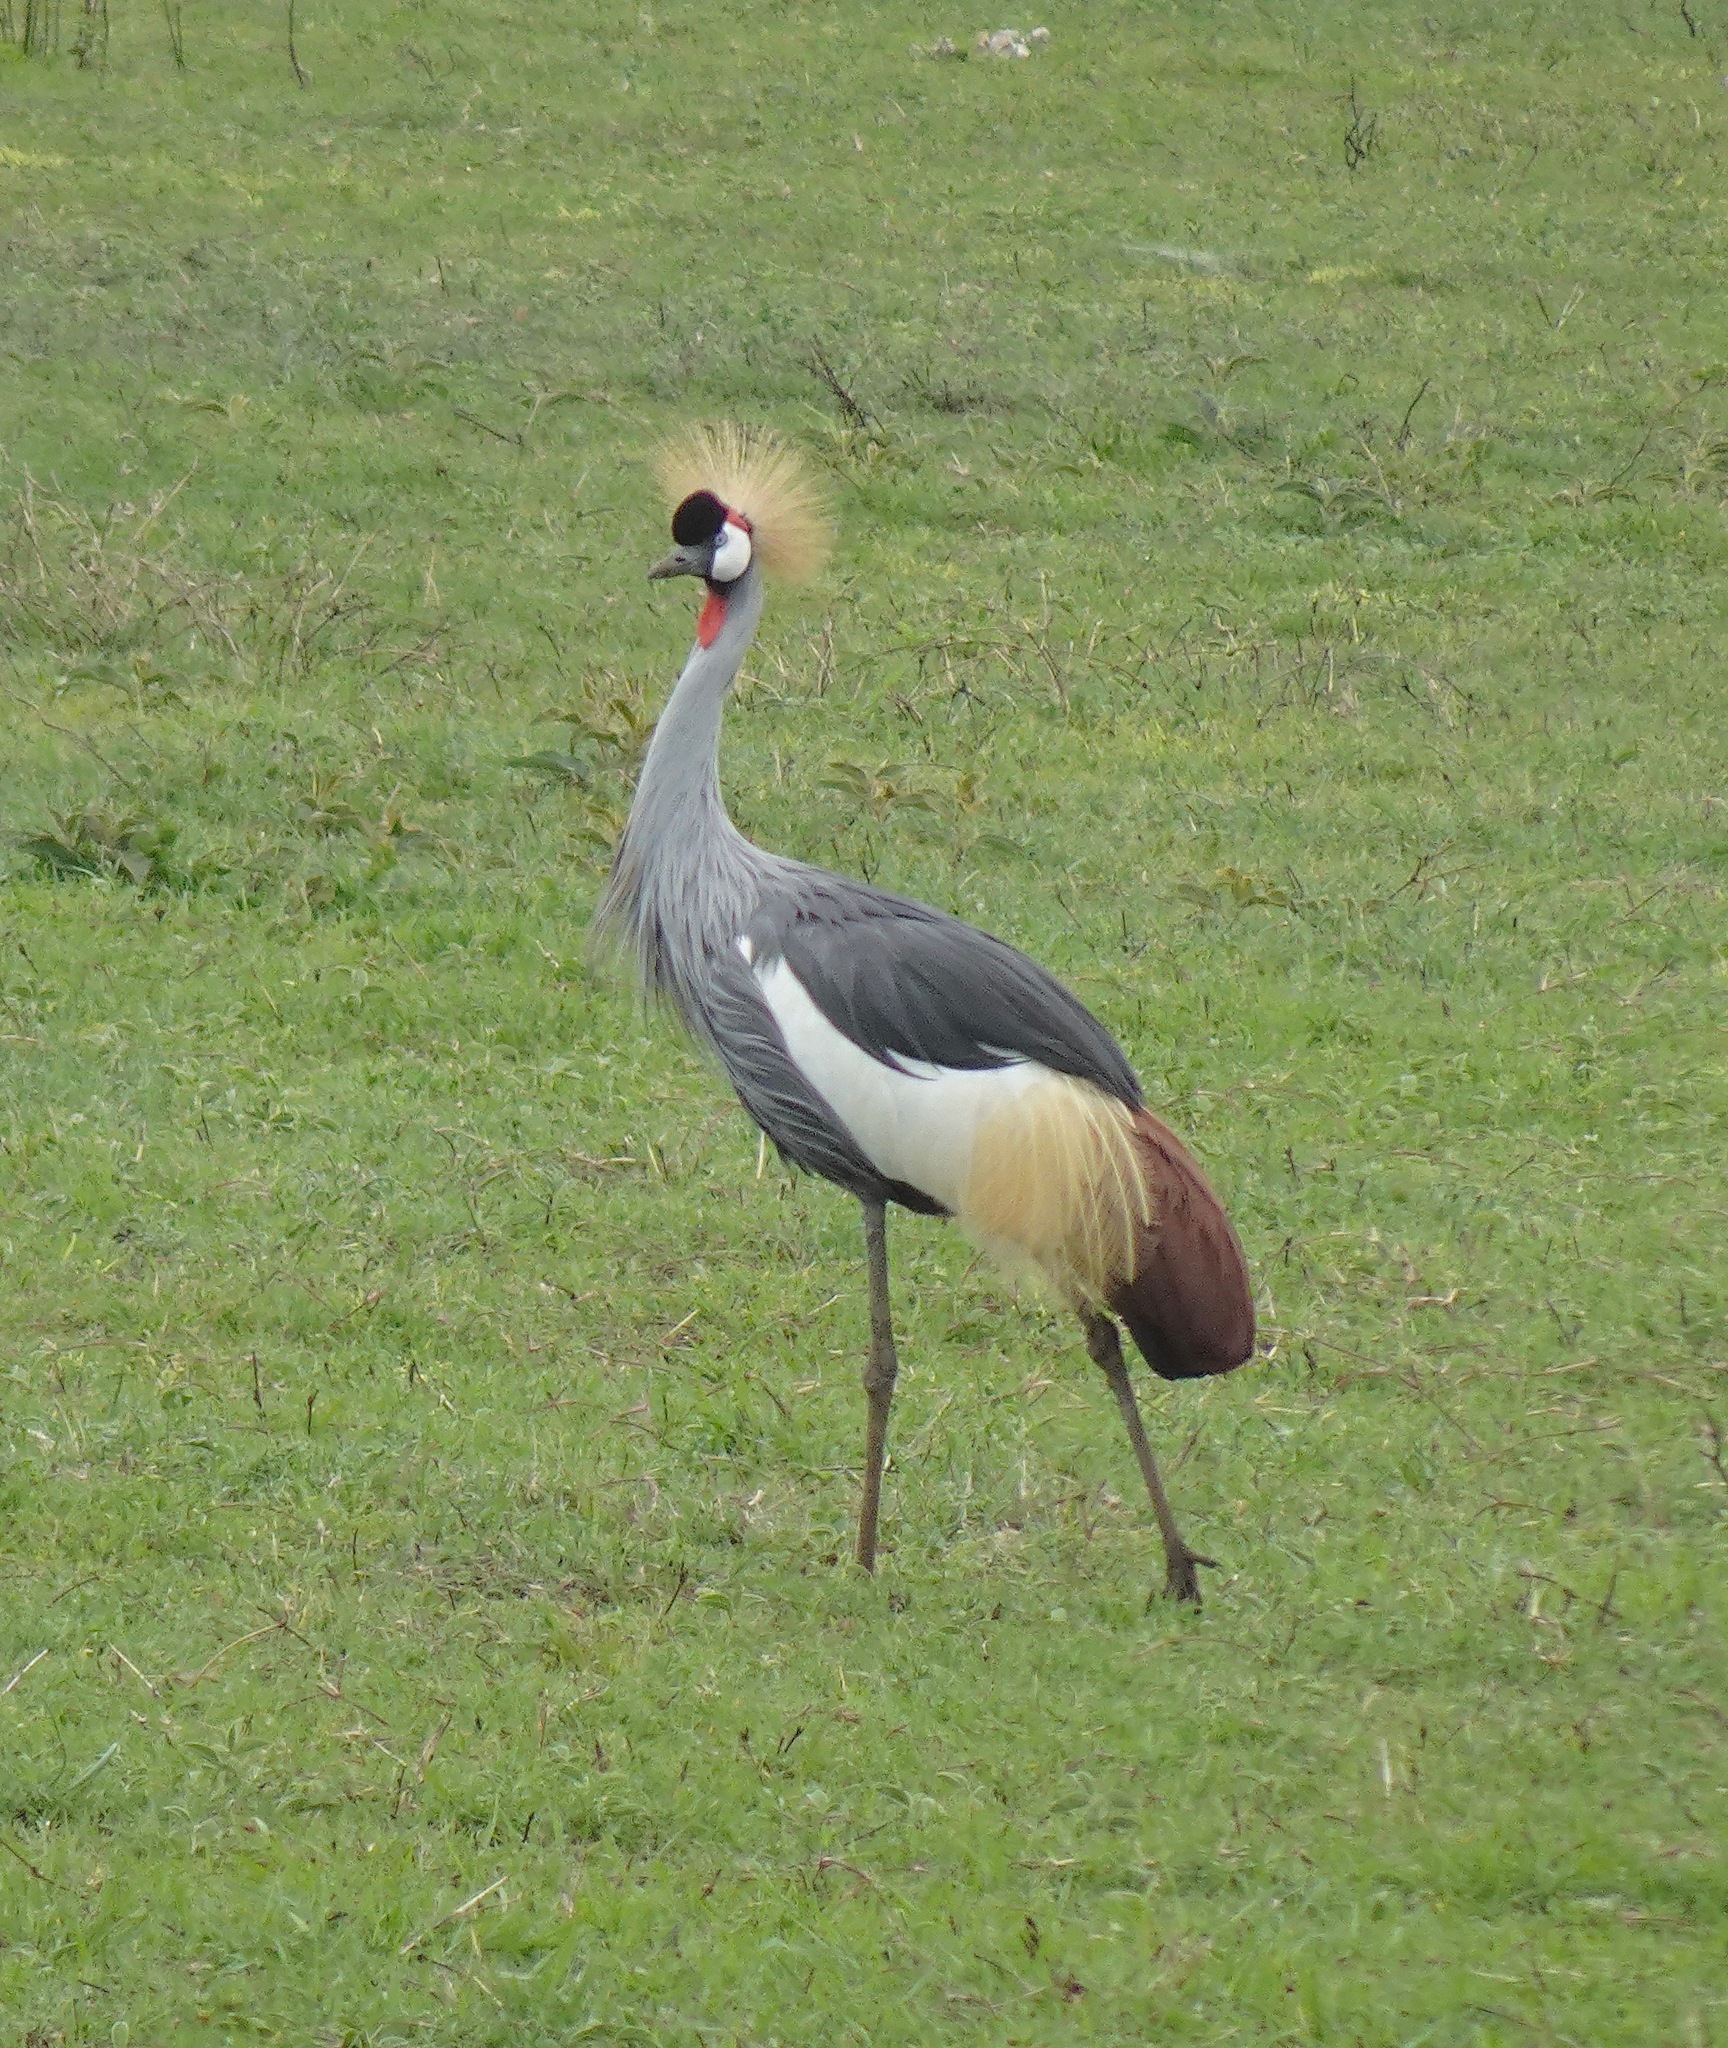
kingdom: Animalia
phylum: Chordata
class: Aves
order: Gruiformes
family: Gruidae
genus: Balearica
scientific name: Balearica regulorum
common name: Grey crowned crane
